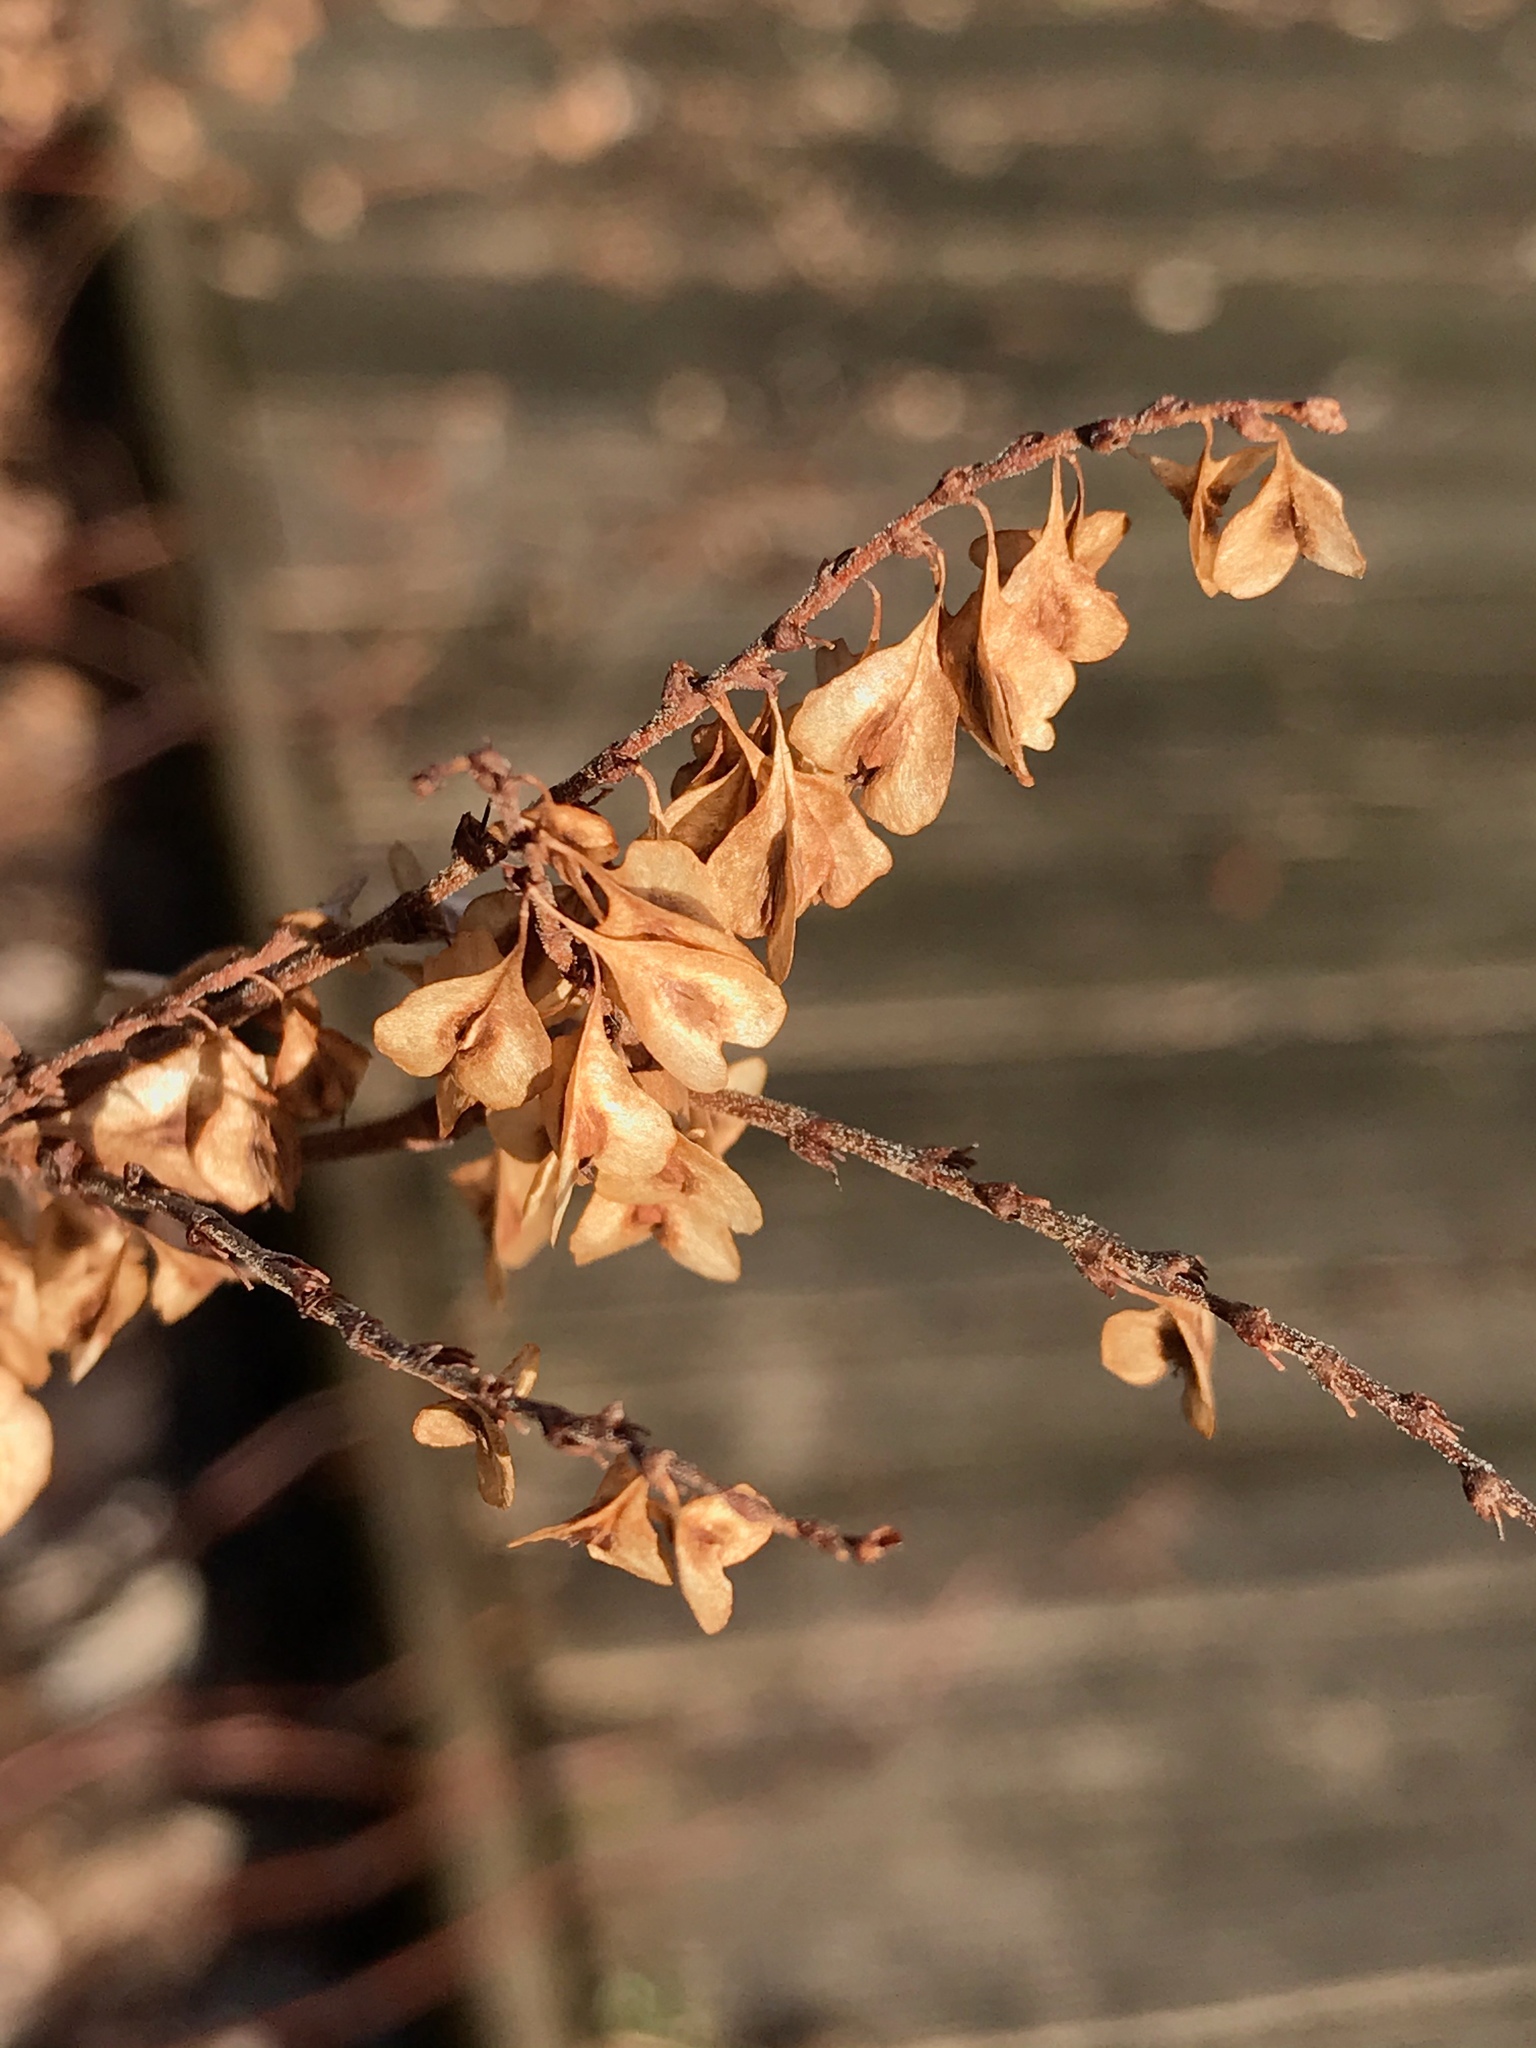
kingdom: Plantae
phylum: Tracheophyta
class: Magnoliopsida
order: Caryophyllales
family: Polygonaceae
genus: Reynoutria
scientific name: Reynoutria japonica
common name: Japanese knotweed
